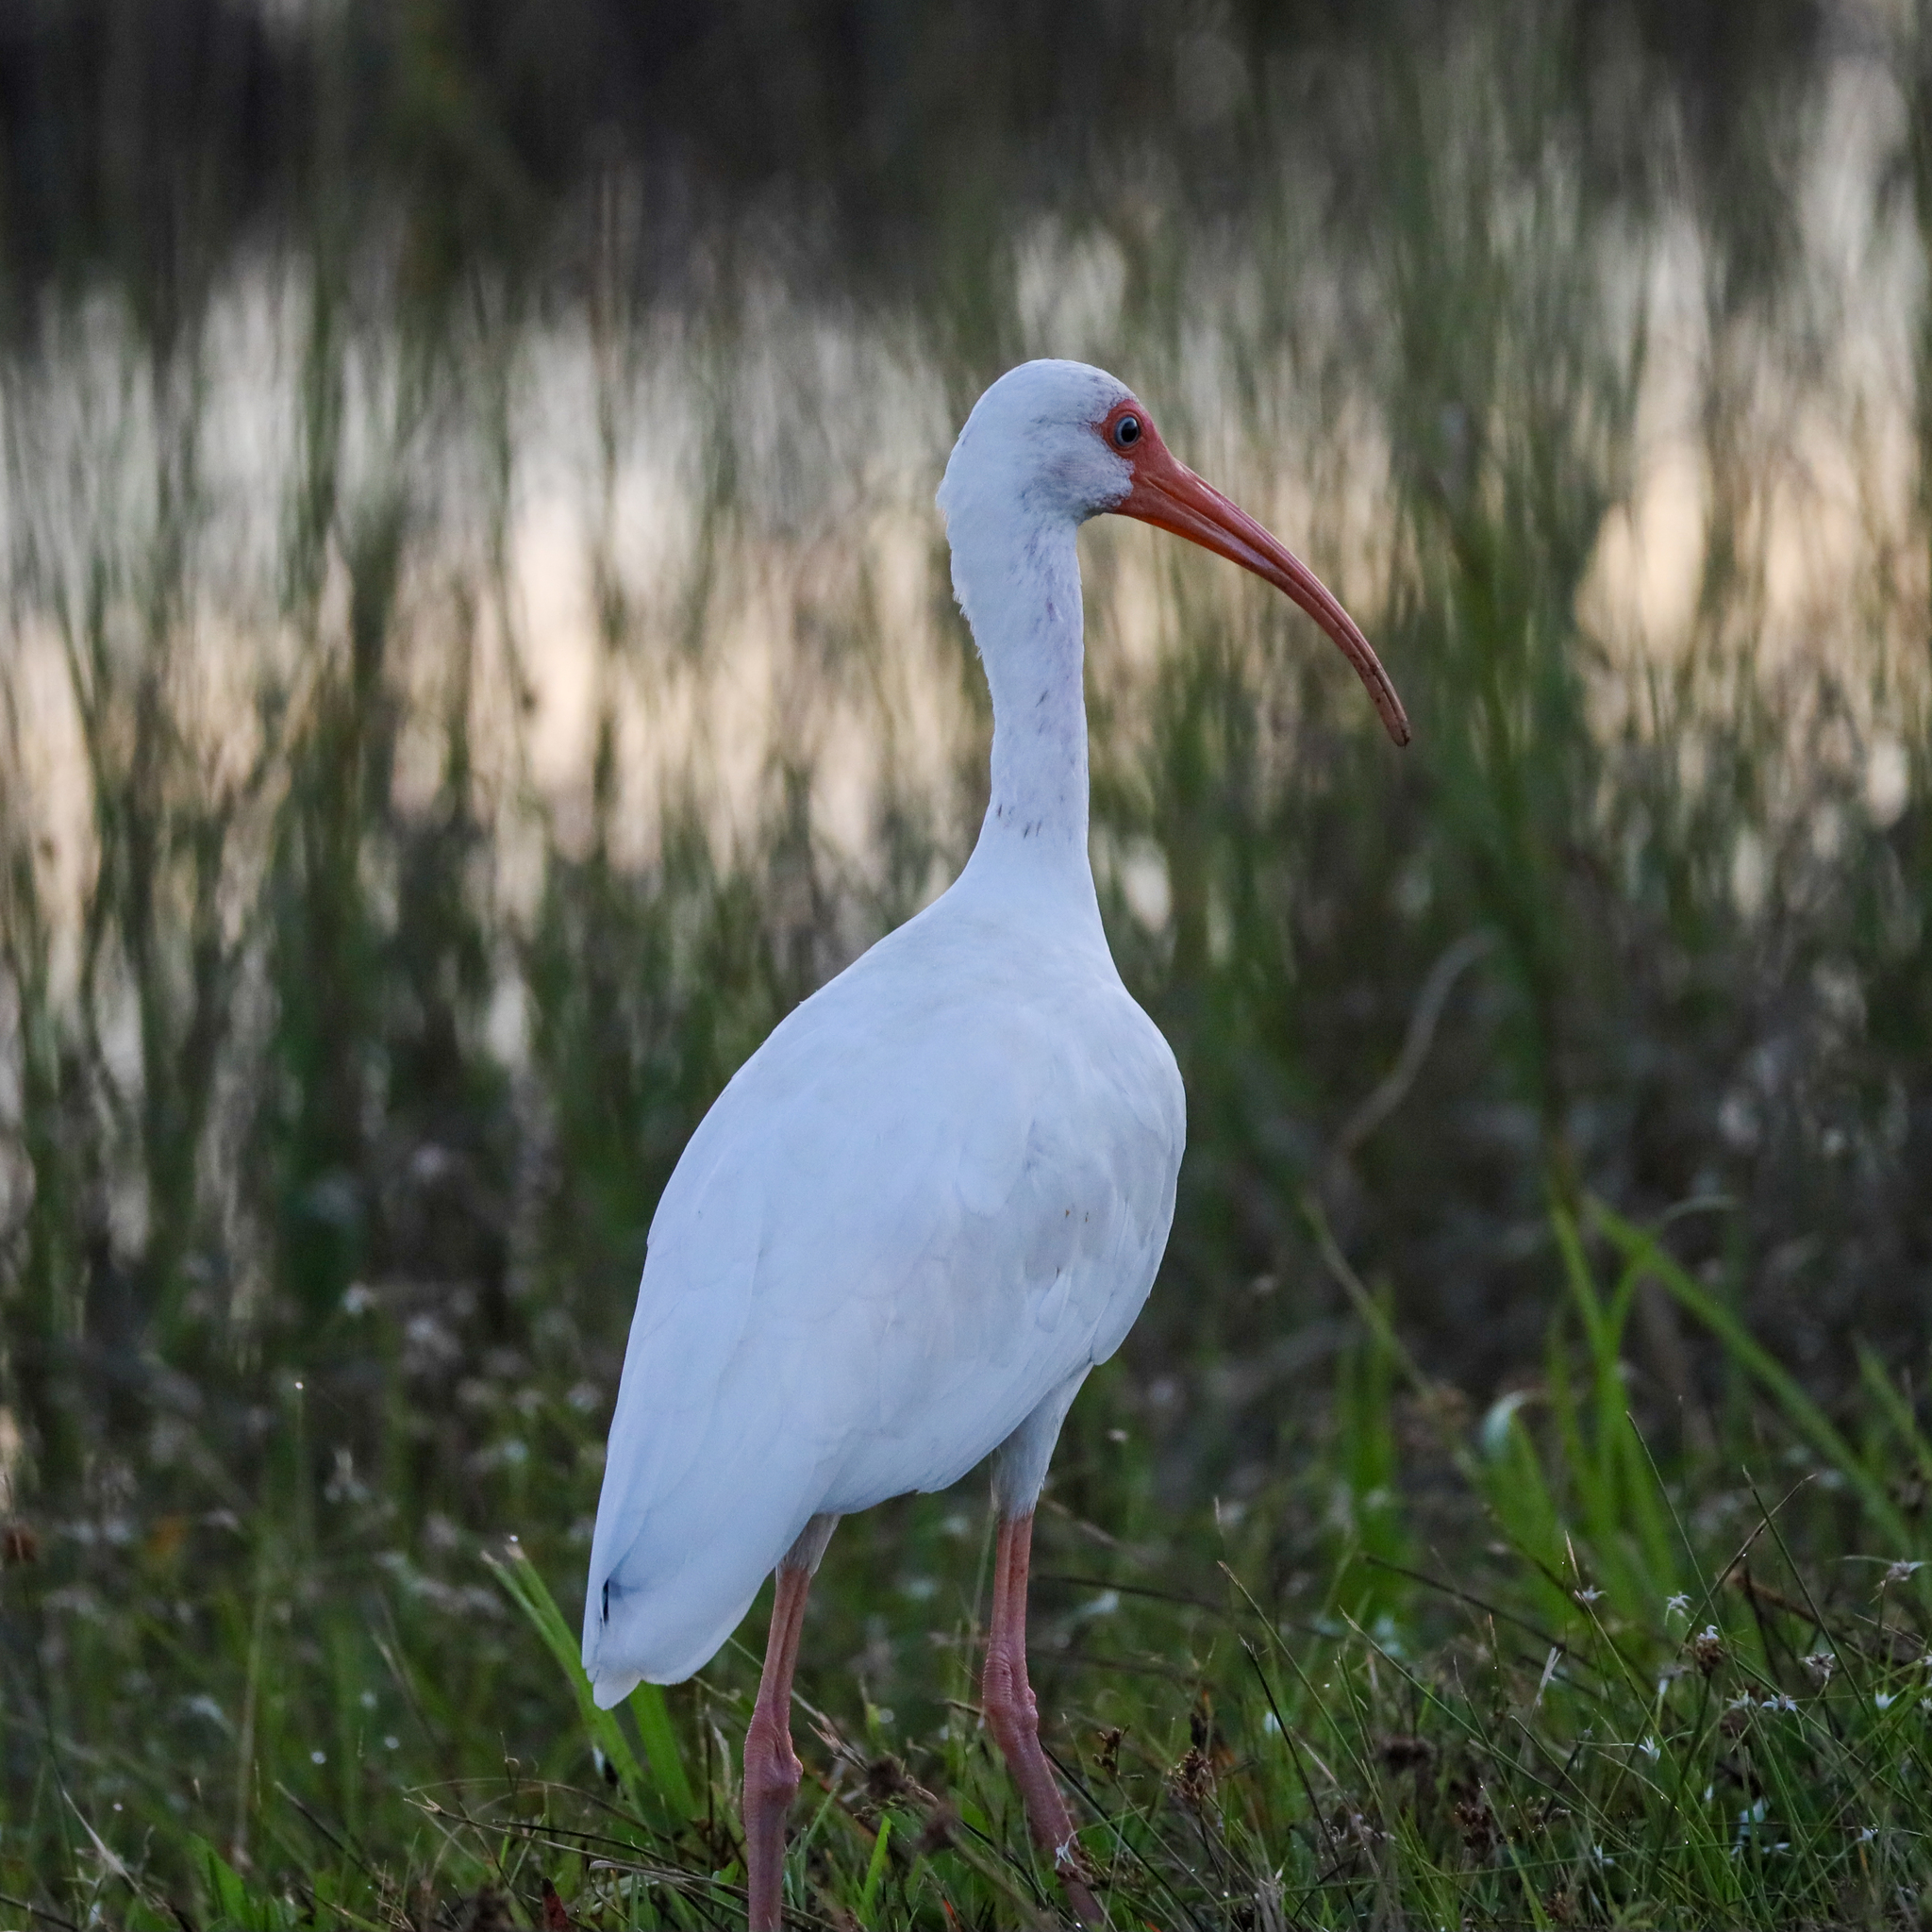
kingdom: Animalia
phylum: Chordata
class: Aves
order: Pelecaniformes
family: Threskiornithidae
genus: Eudocimus
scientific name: Eudocimus albus
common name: White ibis
